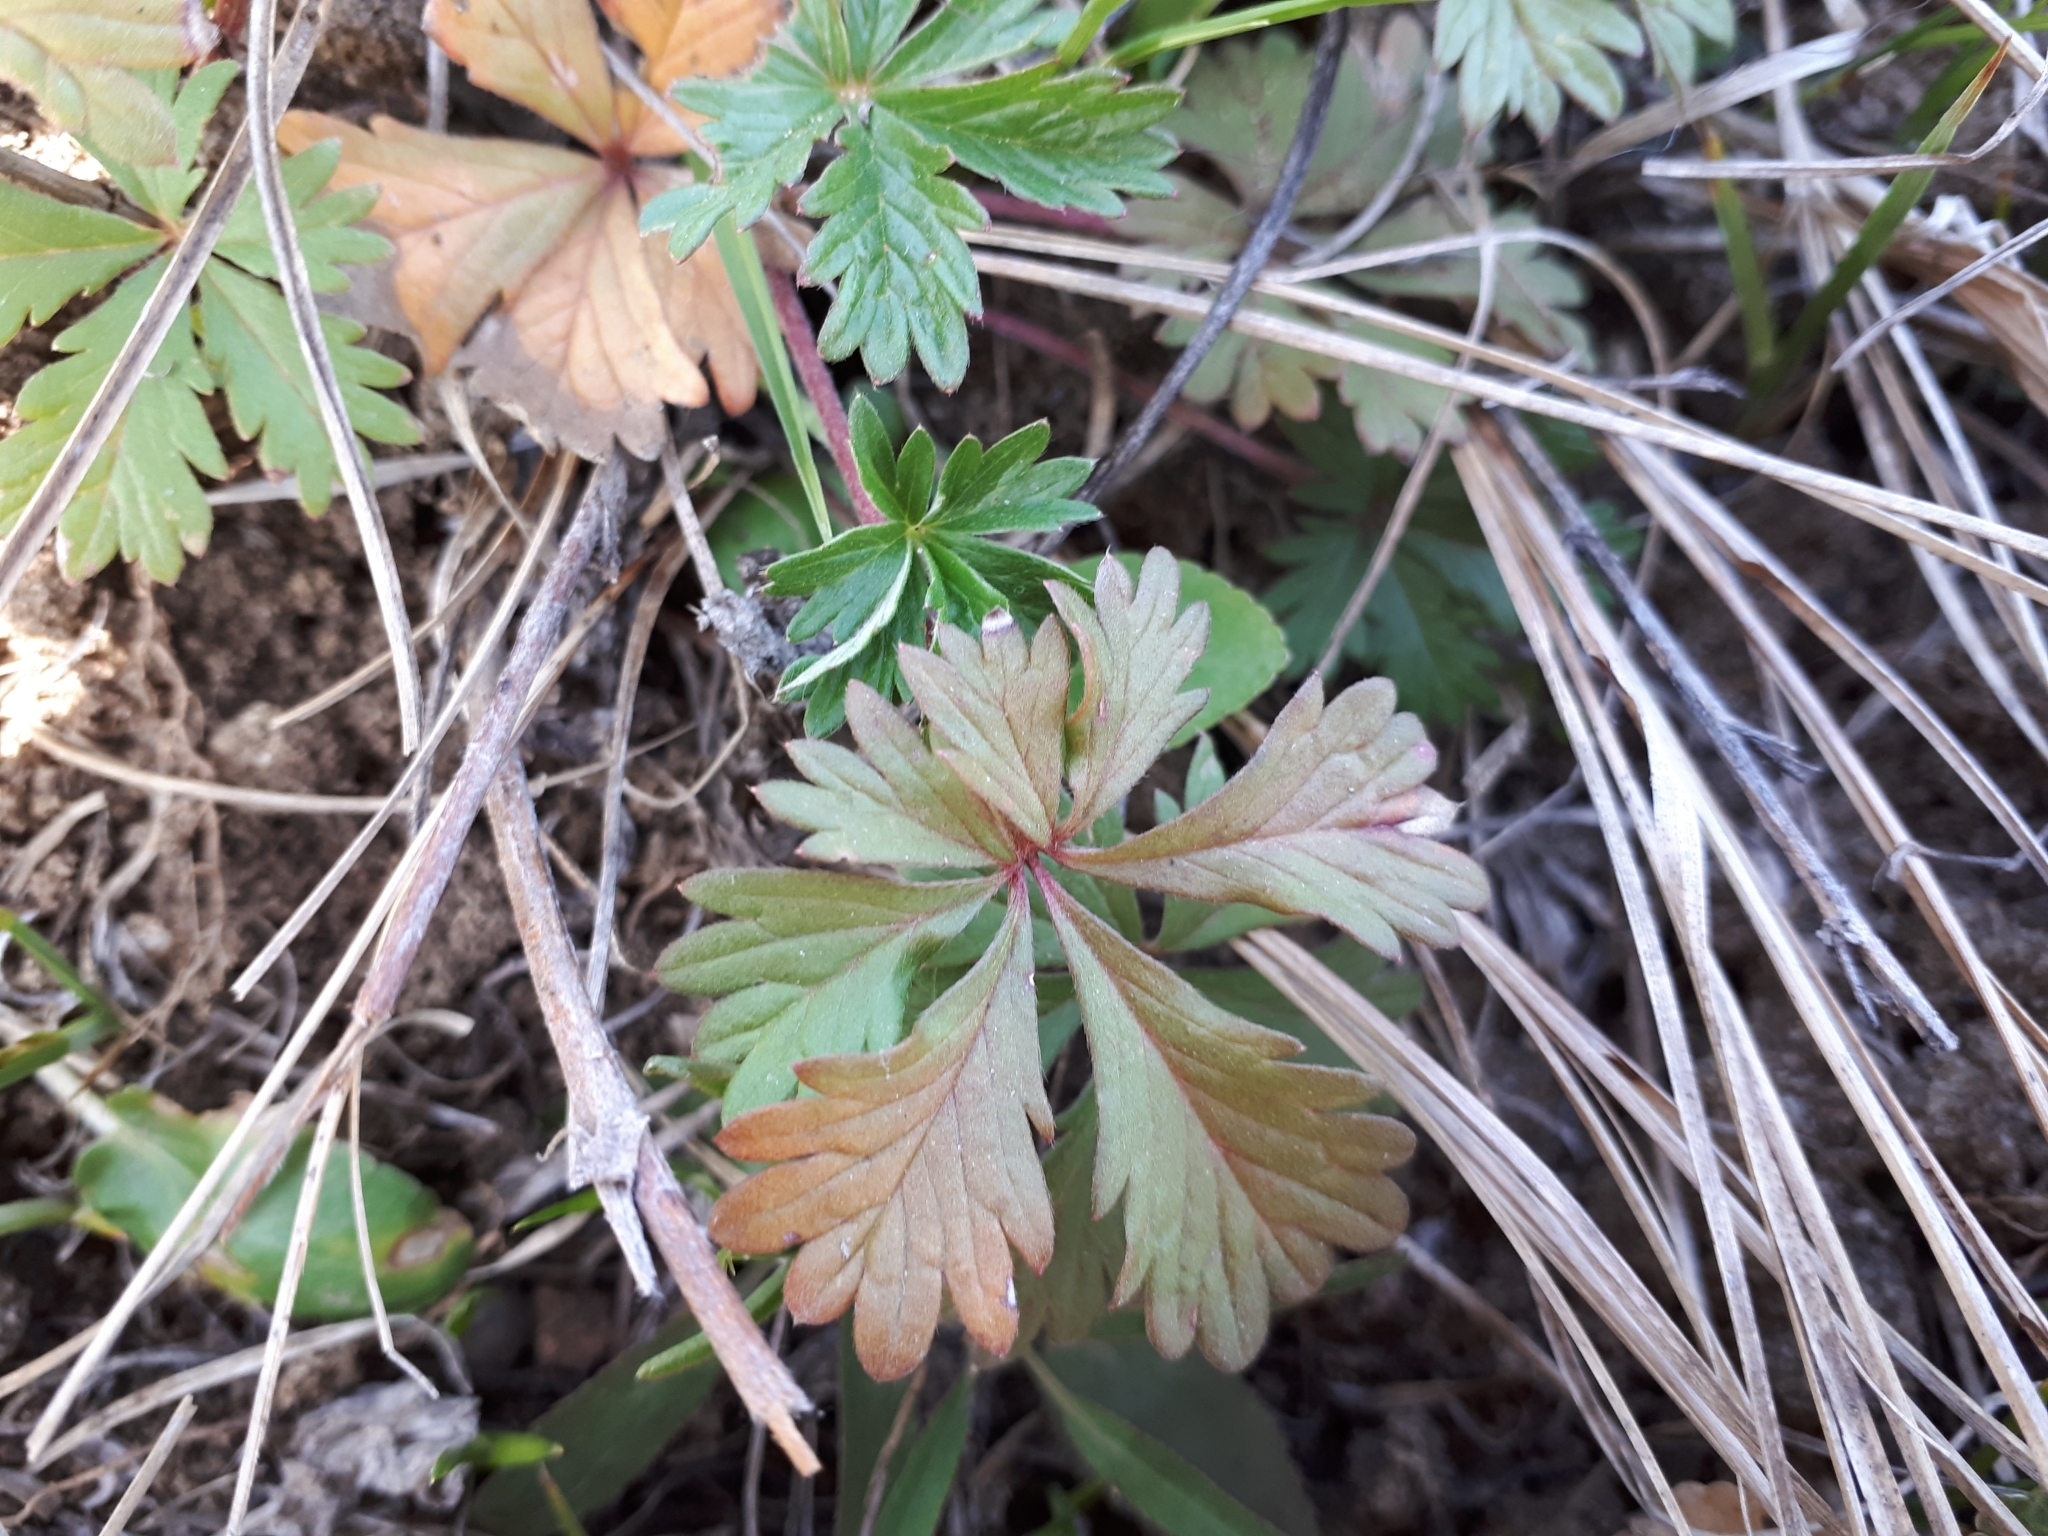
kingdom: Plantae
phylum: Tracheophyta
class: Magnoliopsida
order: Rosales
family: Rosaceae
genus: Potentilla
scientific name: Potentilla argentea
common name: Hoary cinquefoil
